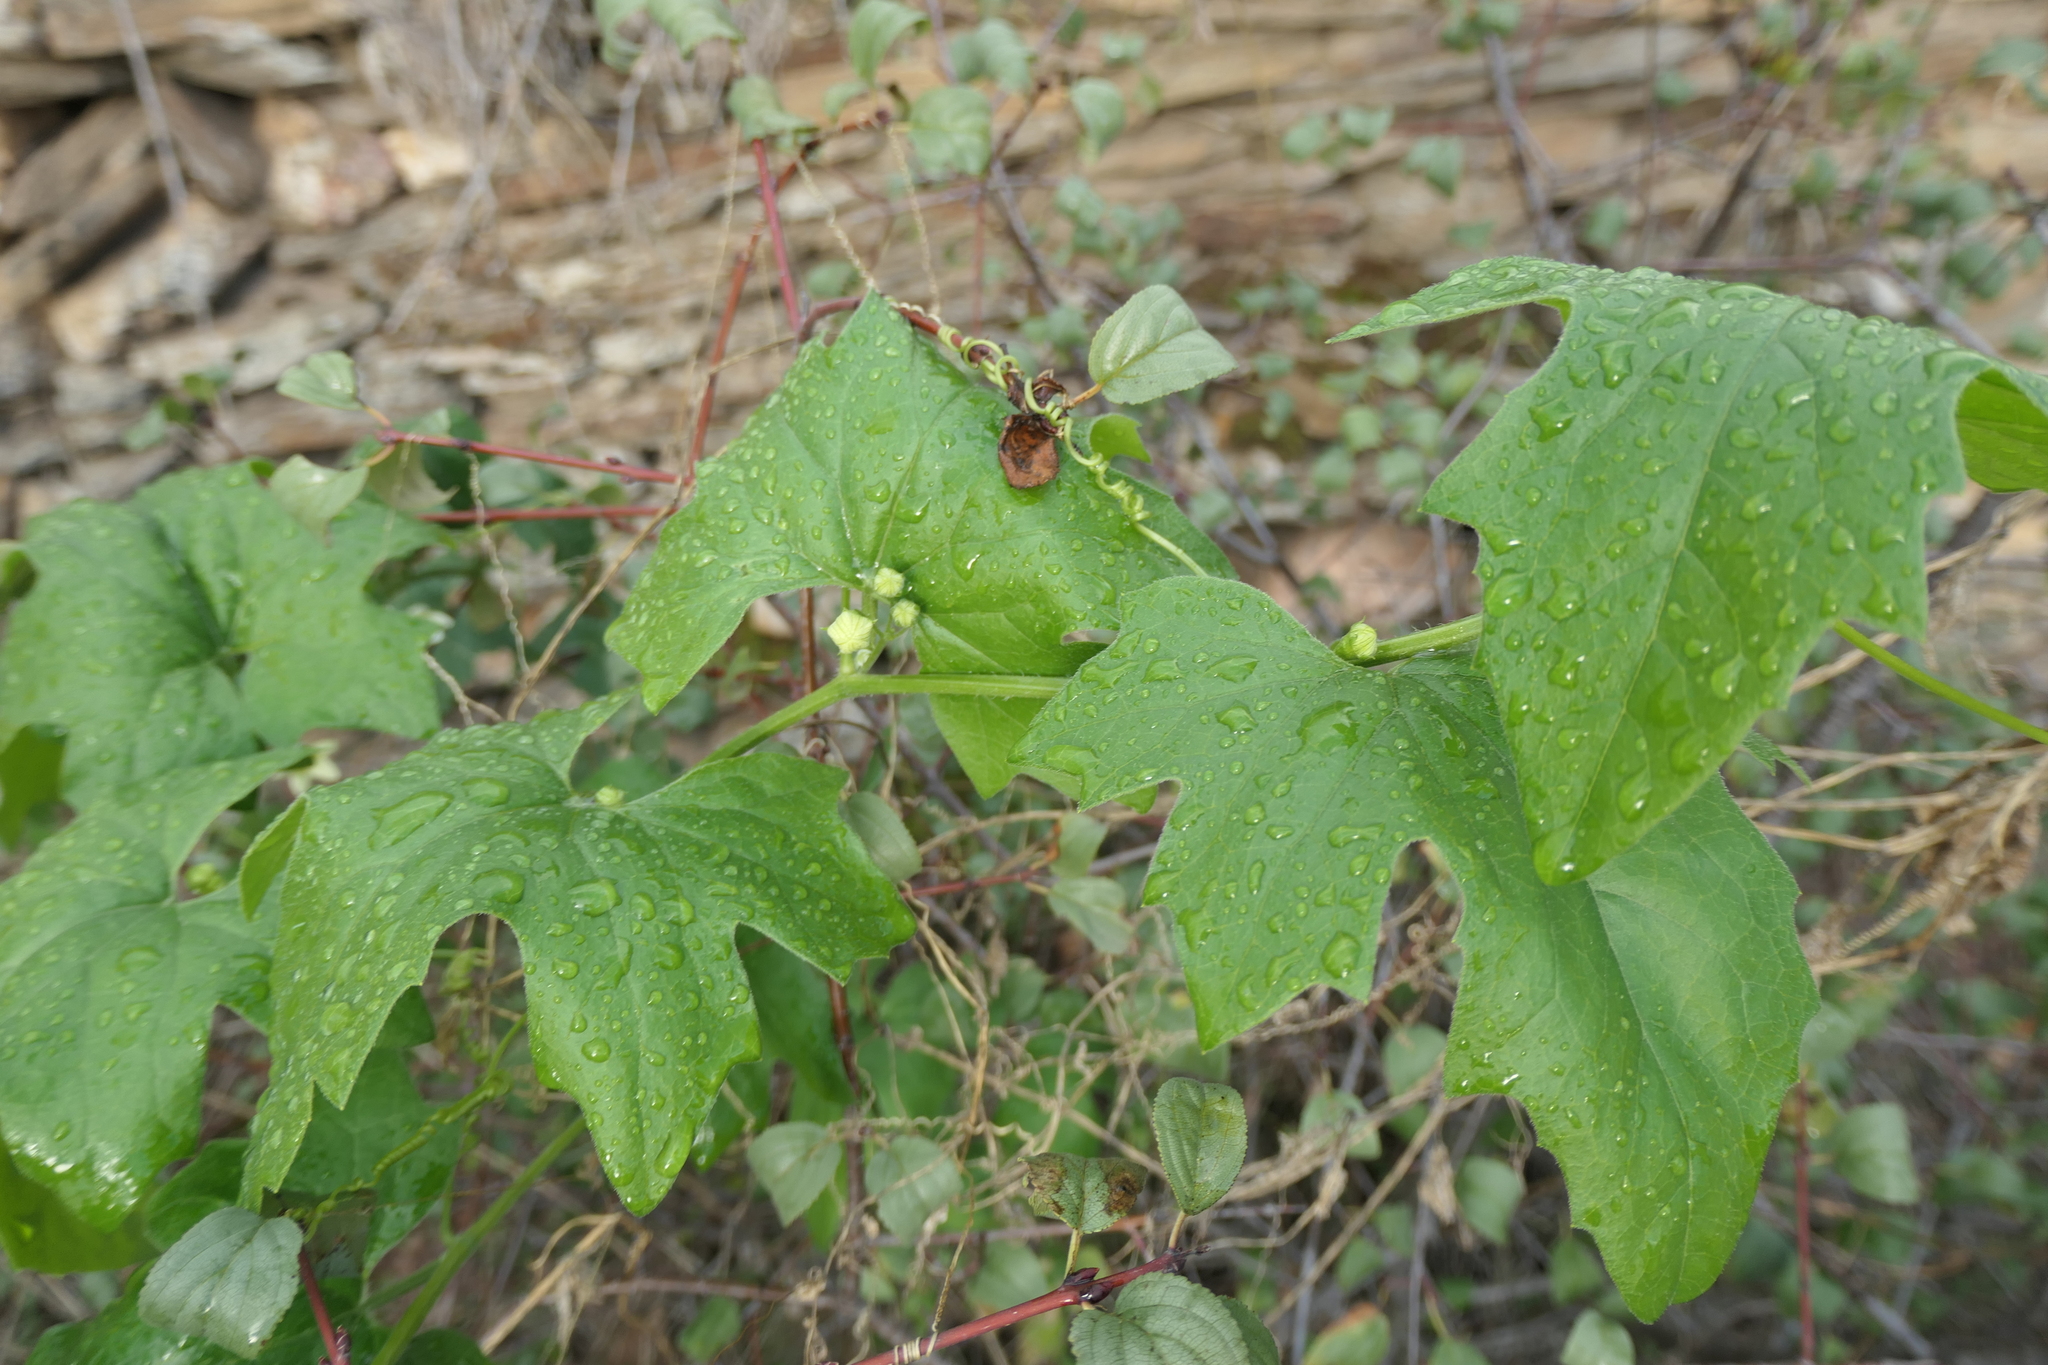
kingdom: Plantae
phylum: Tracheophyta
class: Magnoliopsida
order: Cucurbitales
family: Cucurbitaceae
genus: Bryonia
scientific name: Bryonia cretica
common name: Cretan bryony
